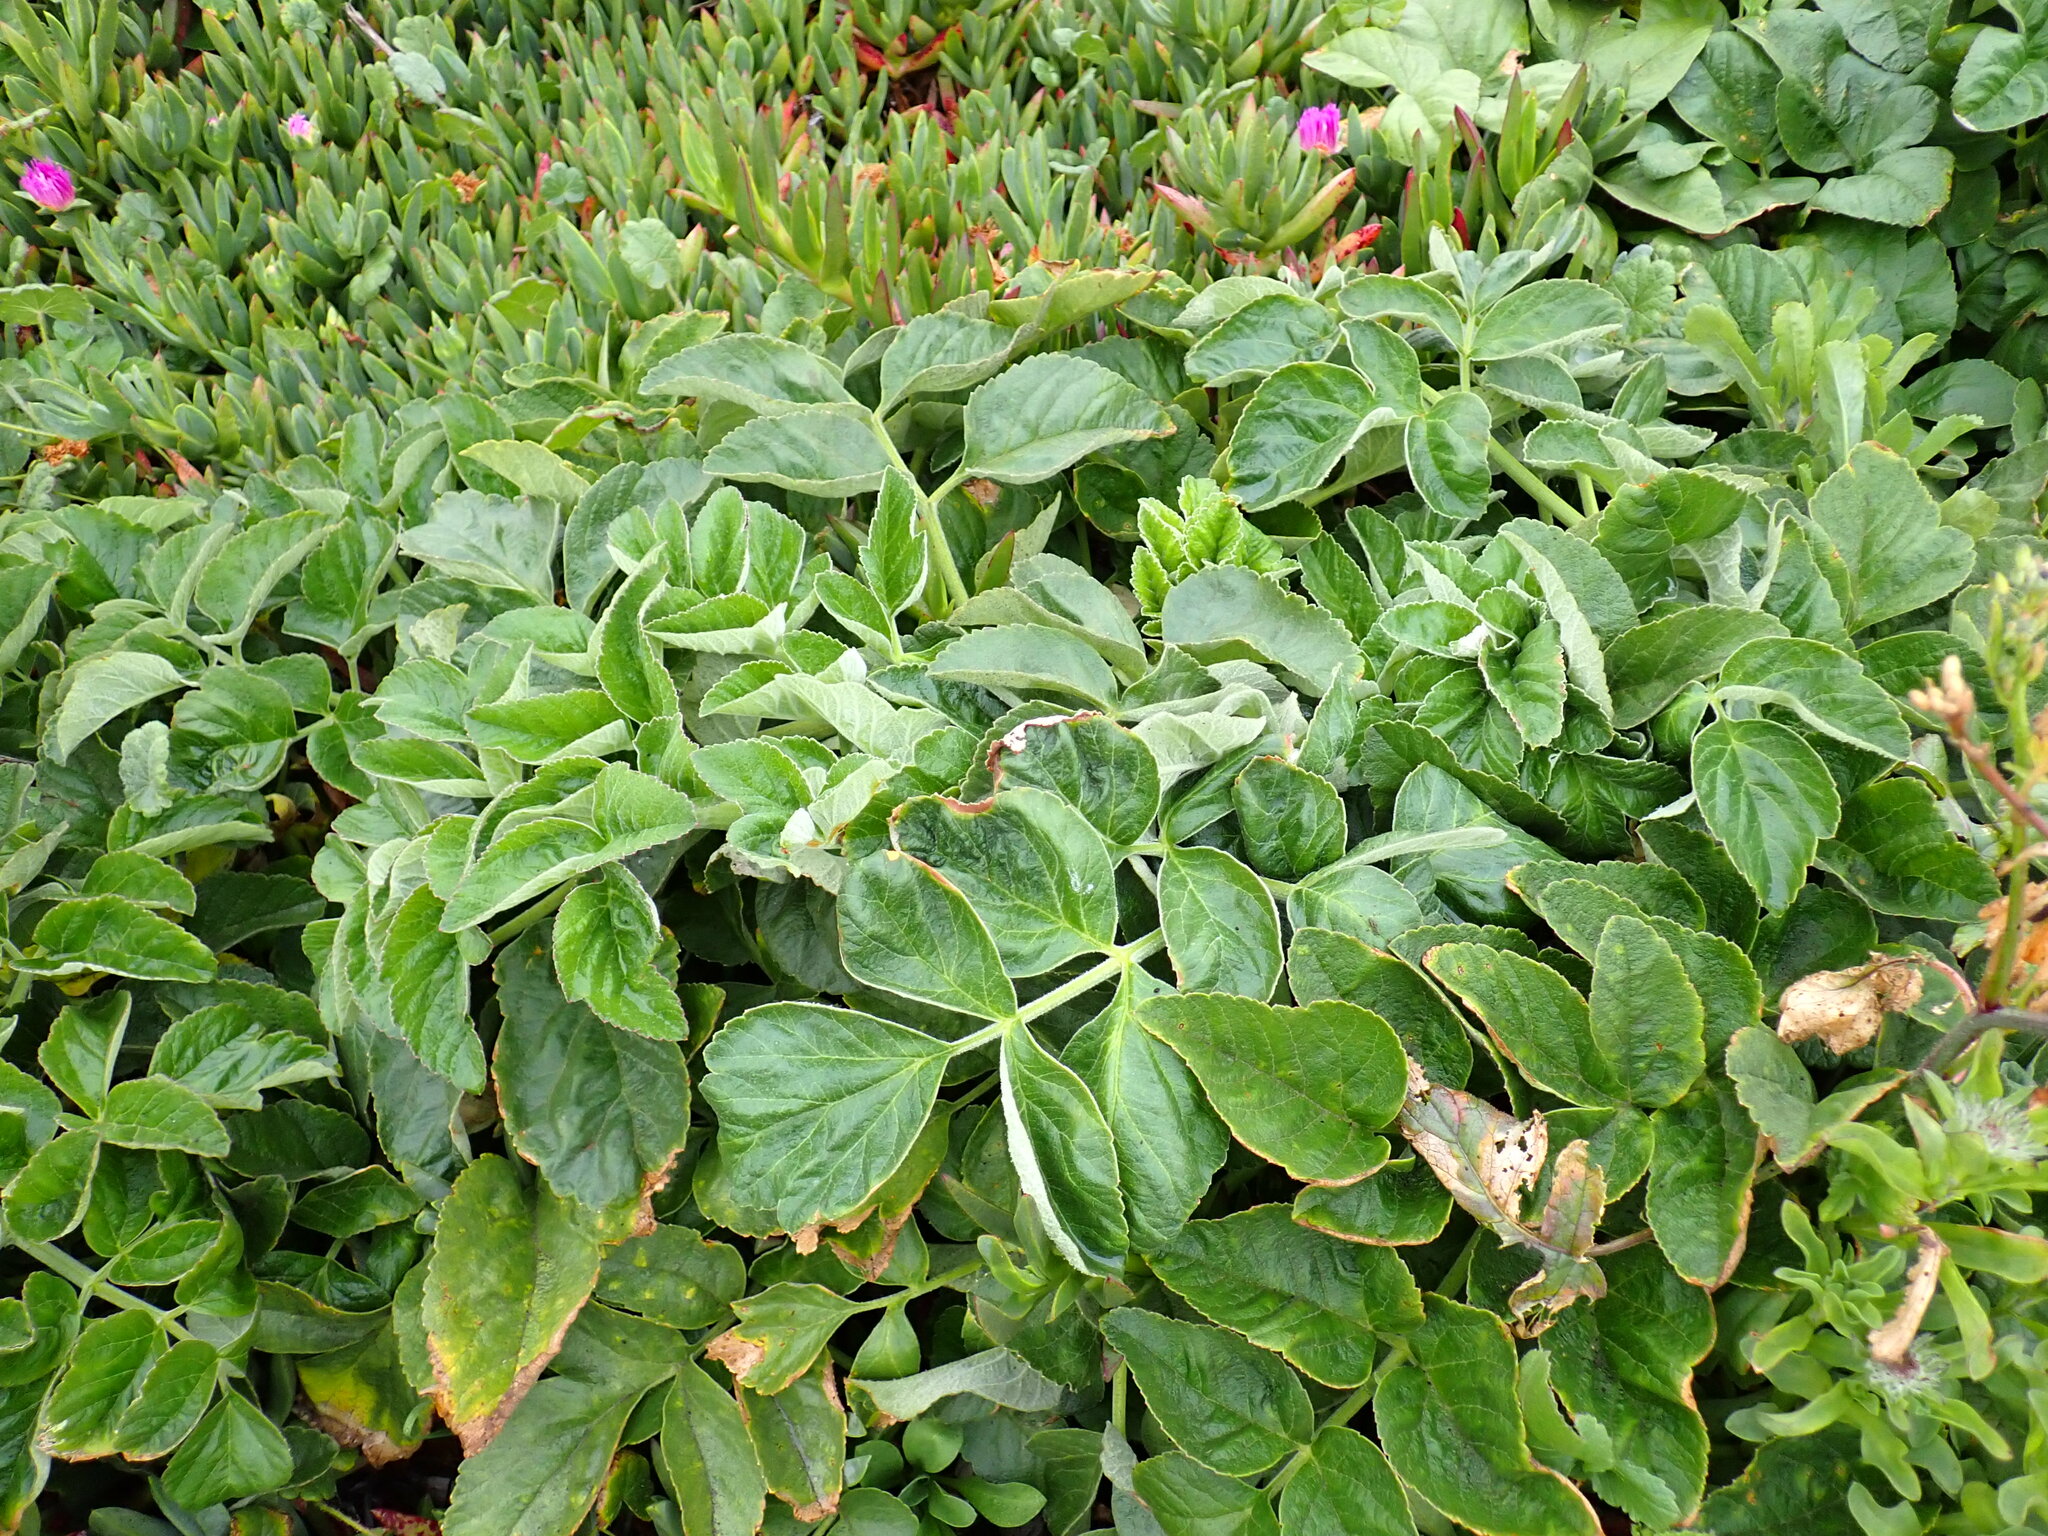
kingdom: Plantae
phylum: Tracheophyta
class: Magnoliopsida
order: Apiales
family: Apiaceae
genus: Angelica
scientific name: Angelica hendersonii
